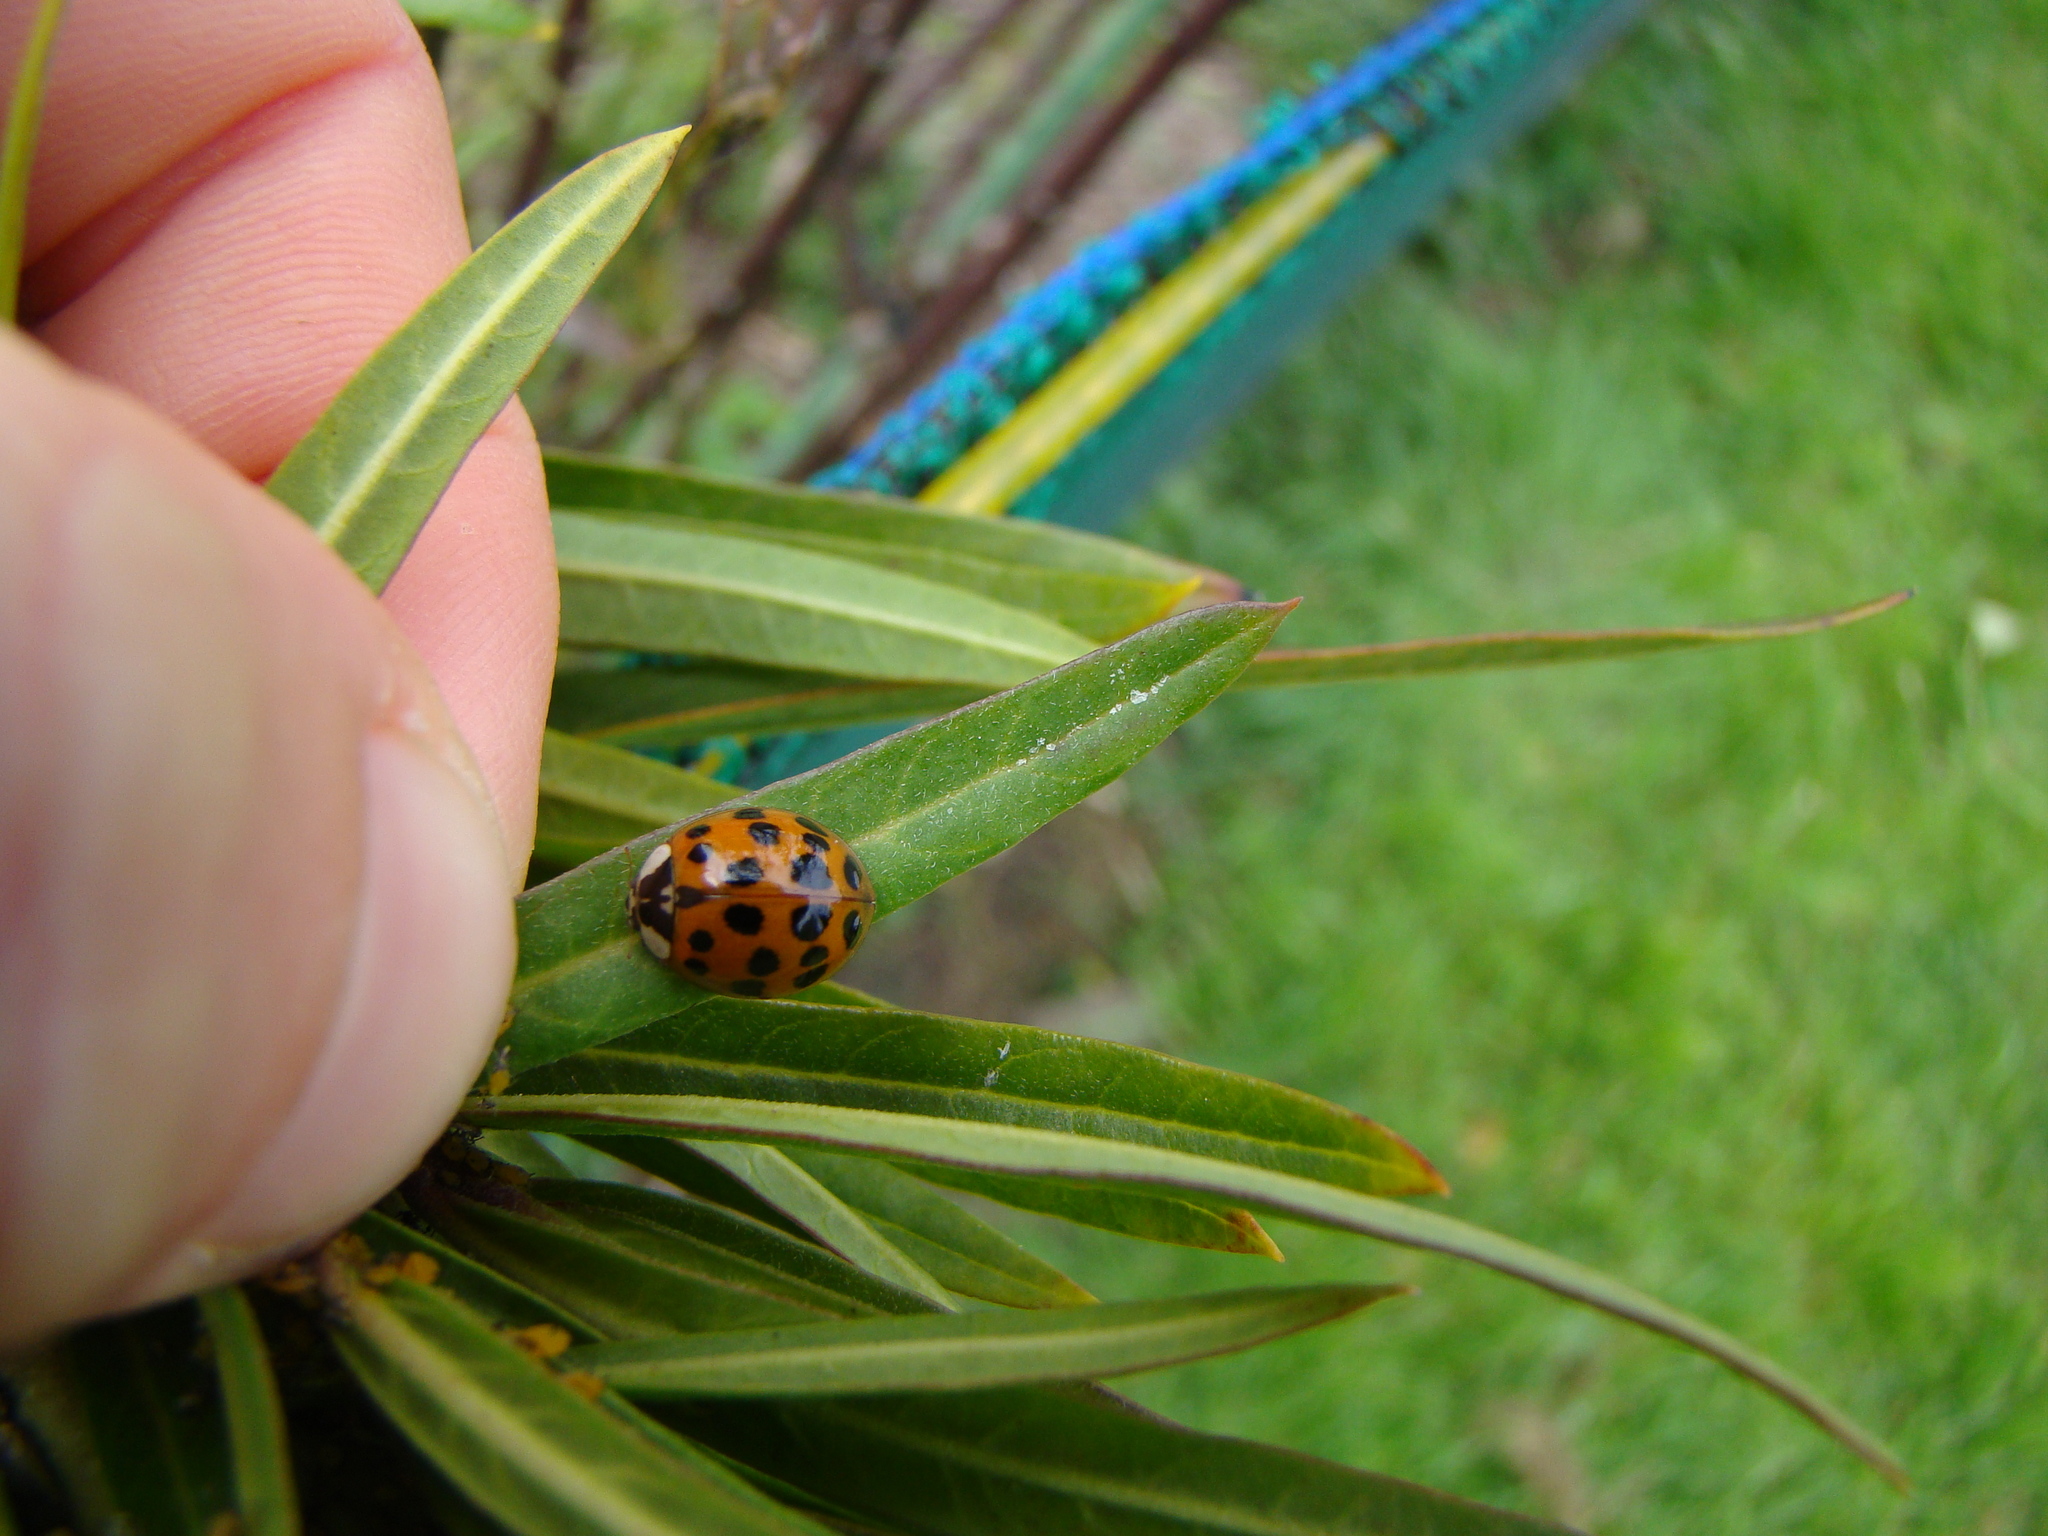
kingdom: Animalia
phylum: Arthropoda
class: Insecta
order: Coleoptera
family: Coccinellidae
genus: Harmonia
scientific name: Harmonia axyridis
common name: Harlequin ladybird
